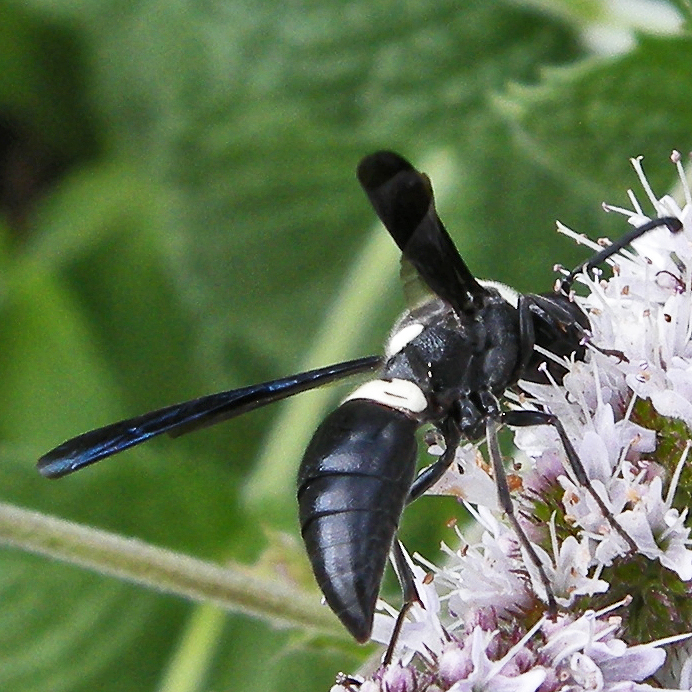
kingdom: Animalia
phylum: Arthropoda
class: Insecta
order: Hymenoptera
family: Eumenidae
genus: Monobia
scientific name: Monobia quadridens
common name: Four-toothed mason wasp
